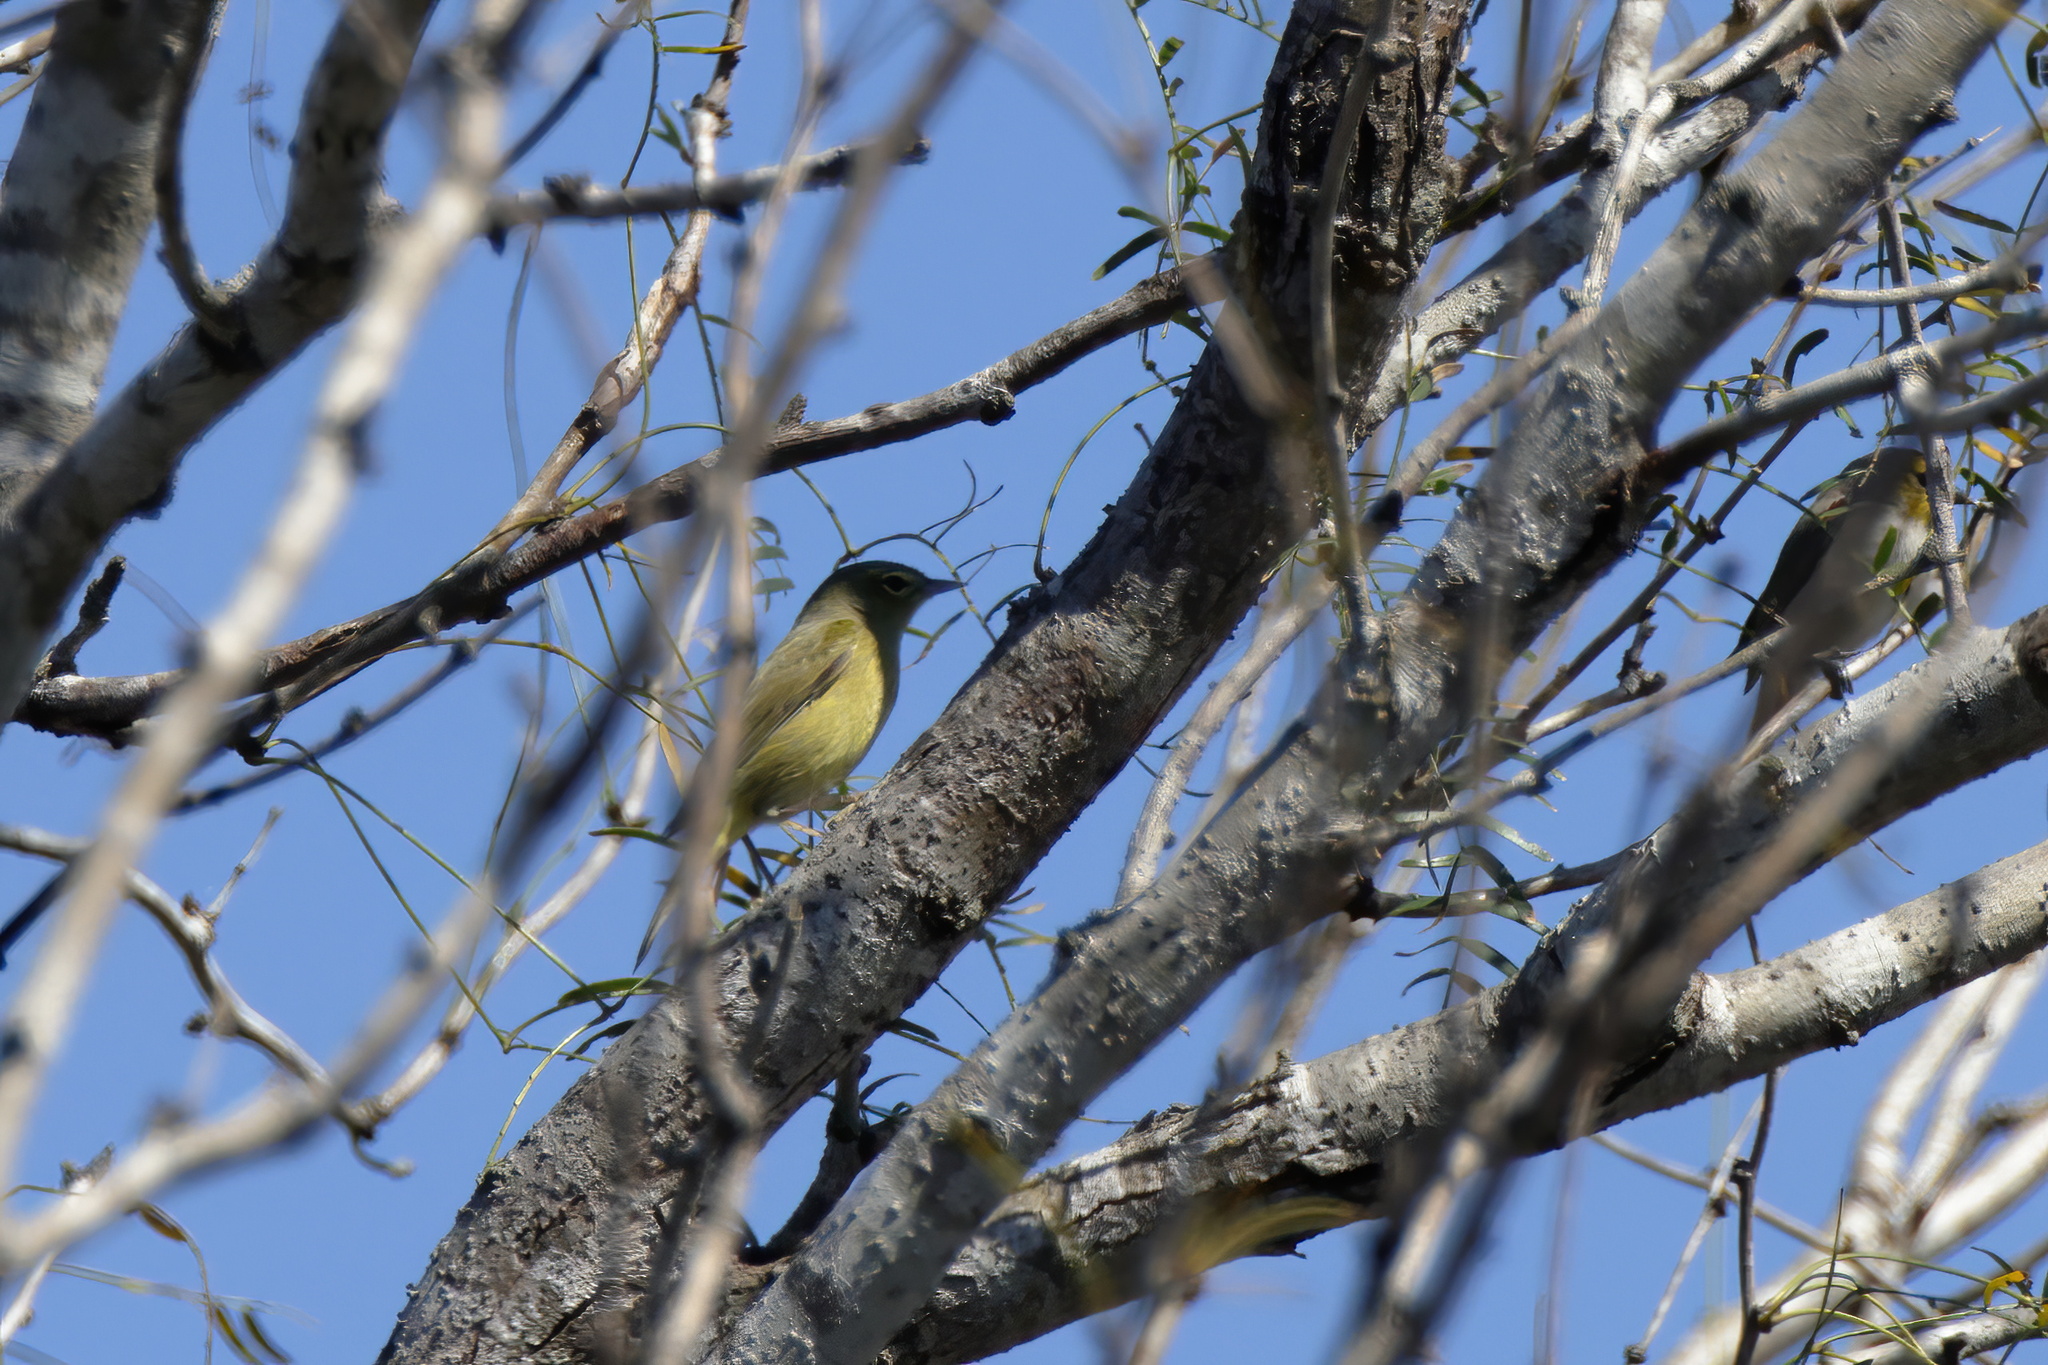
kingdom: Animalia
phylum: Chordata
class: Aves
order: Passeriformes
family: Parulidae
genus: Leiothlypis
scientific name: Leiothlypis celata
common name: Orange-crowned warbler
